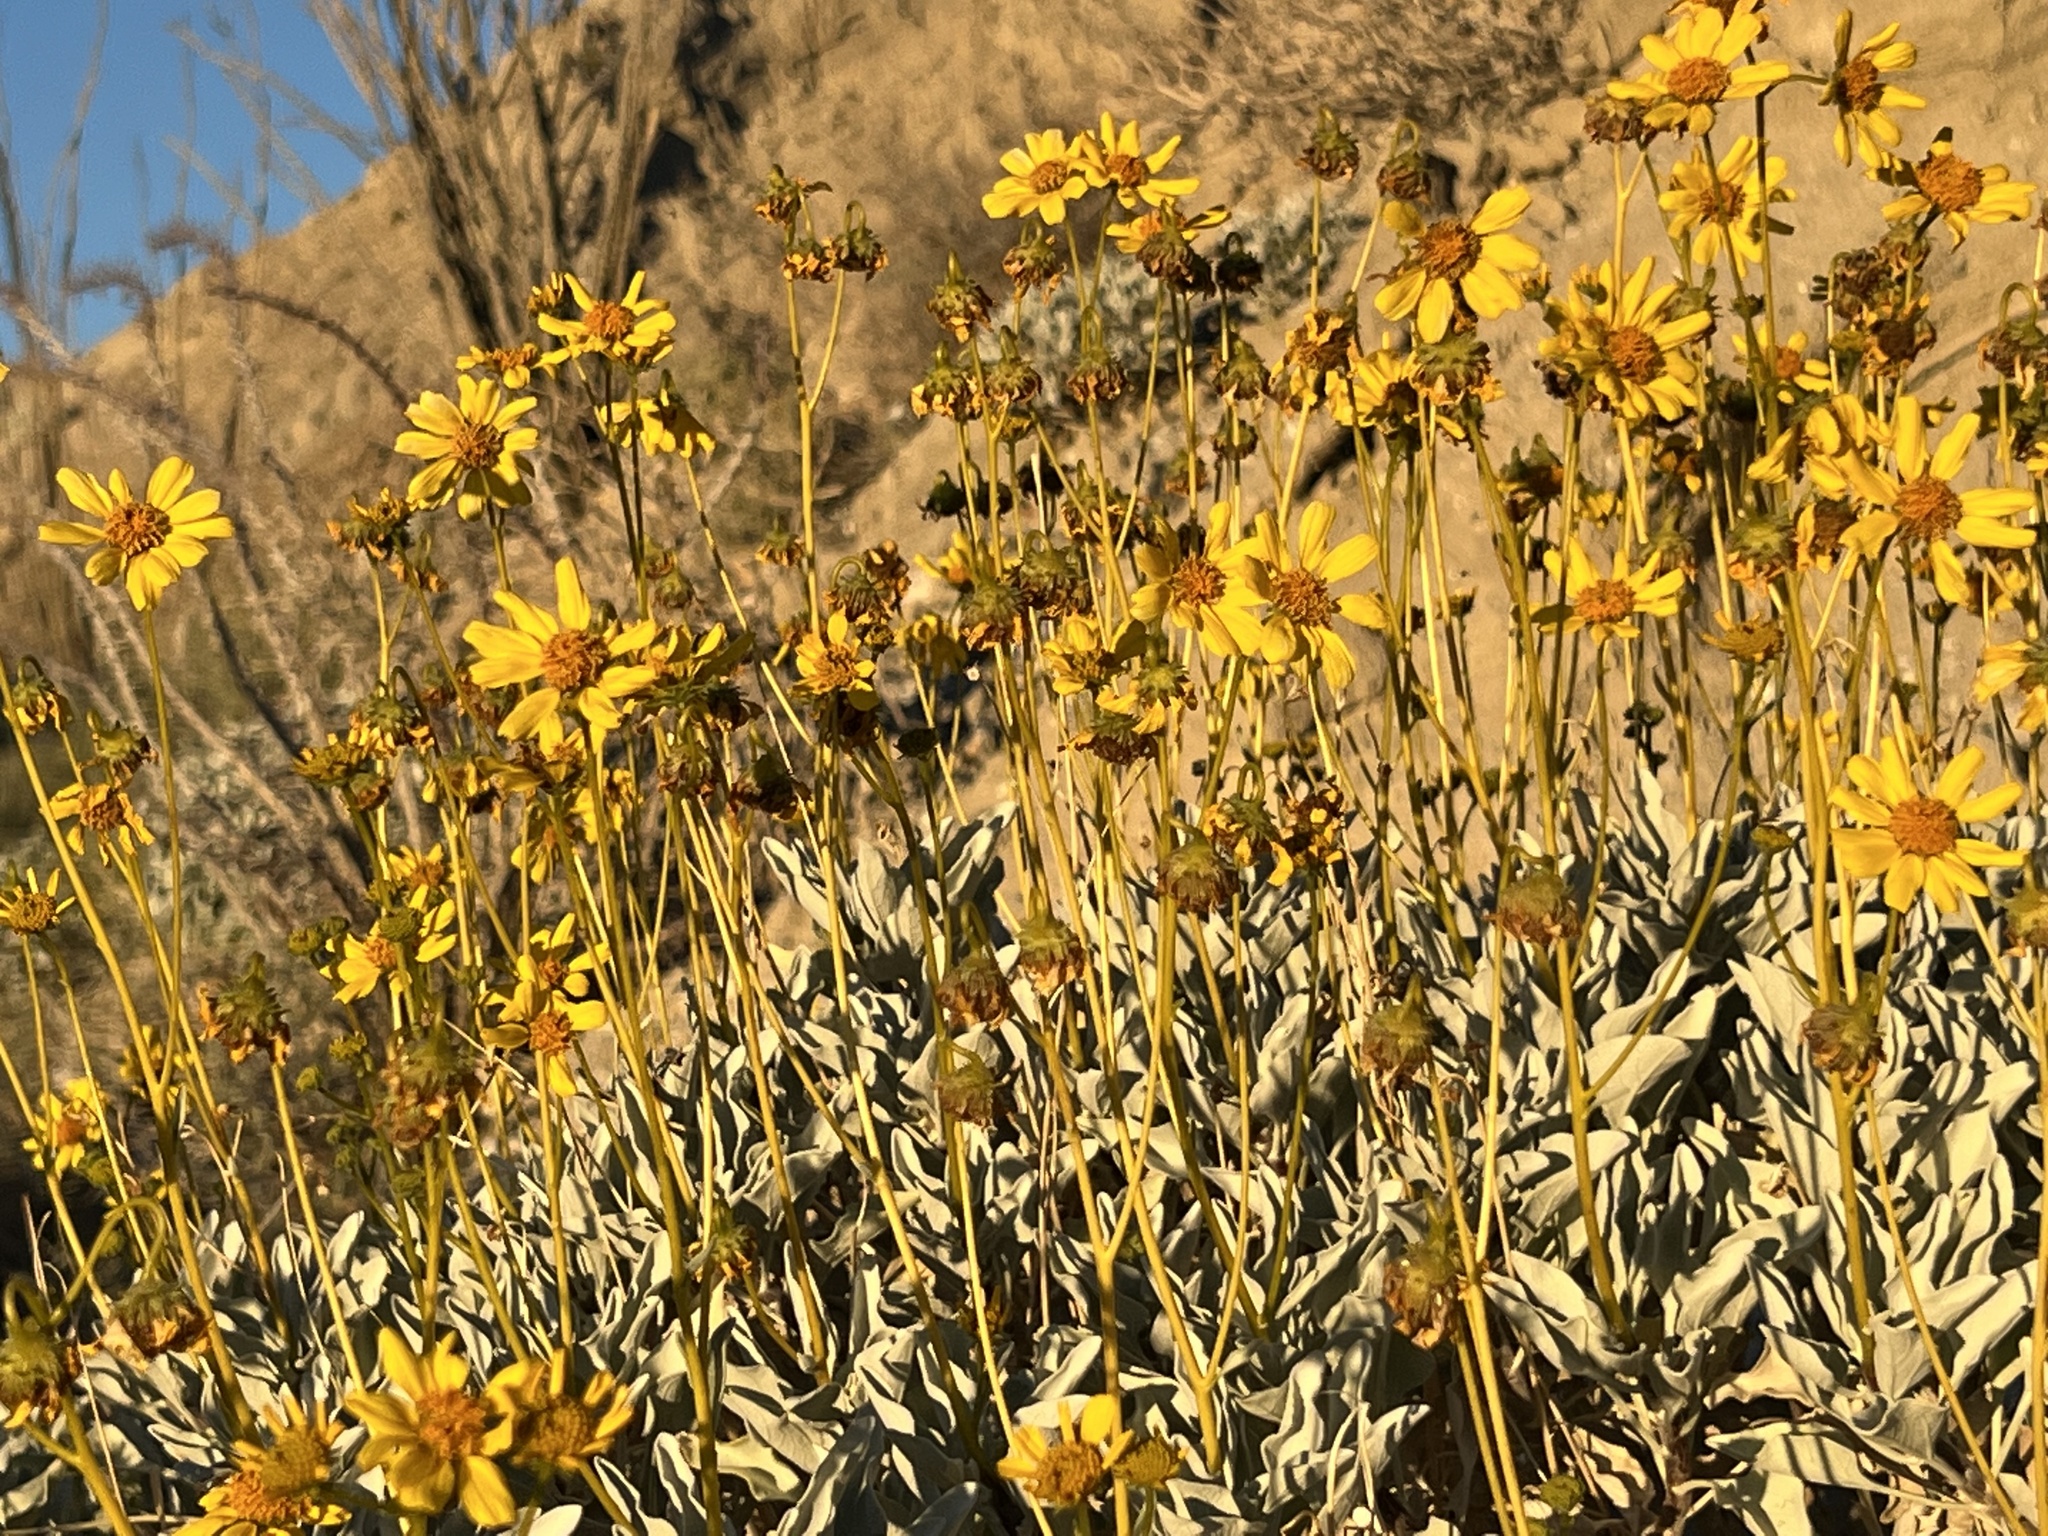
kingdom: Plantae
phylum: Tracheophyta
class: Magnoliopsida
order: Asterales
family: Asteraceae
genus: Encelia
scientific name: Encelia farinosa
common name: Brittlebush
